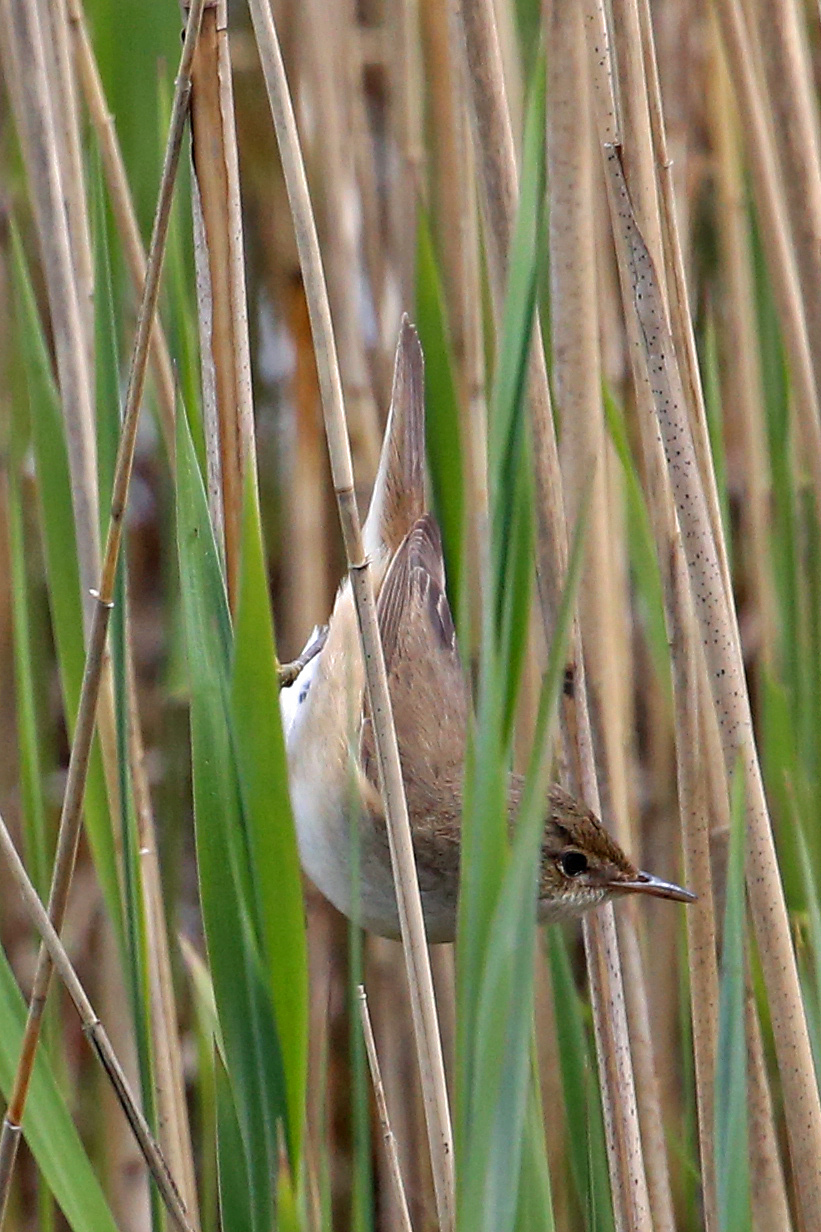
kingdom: Animalia
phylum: Chordata
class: Aves
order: Passeriformes
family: Acrocephalidae
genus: Acrocephalus
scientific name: Acrocephalus scirpaceus
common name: Eurasian reed warbler
